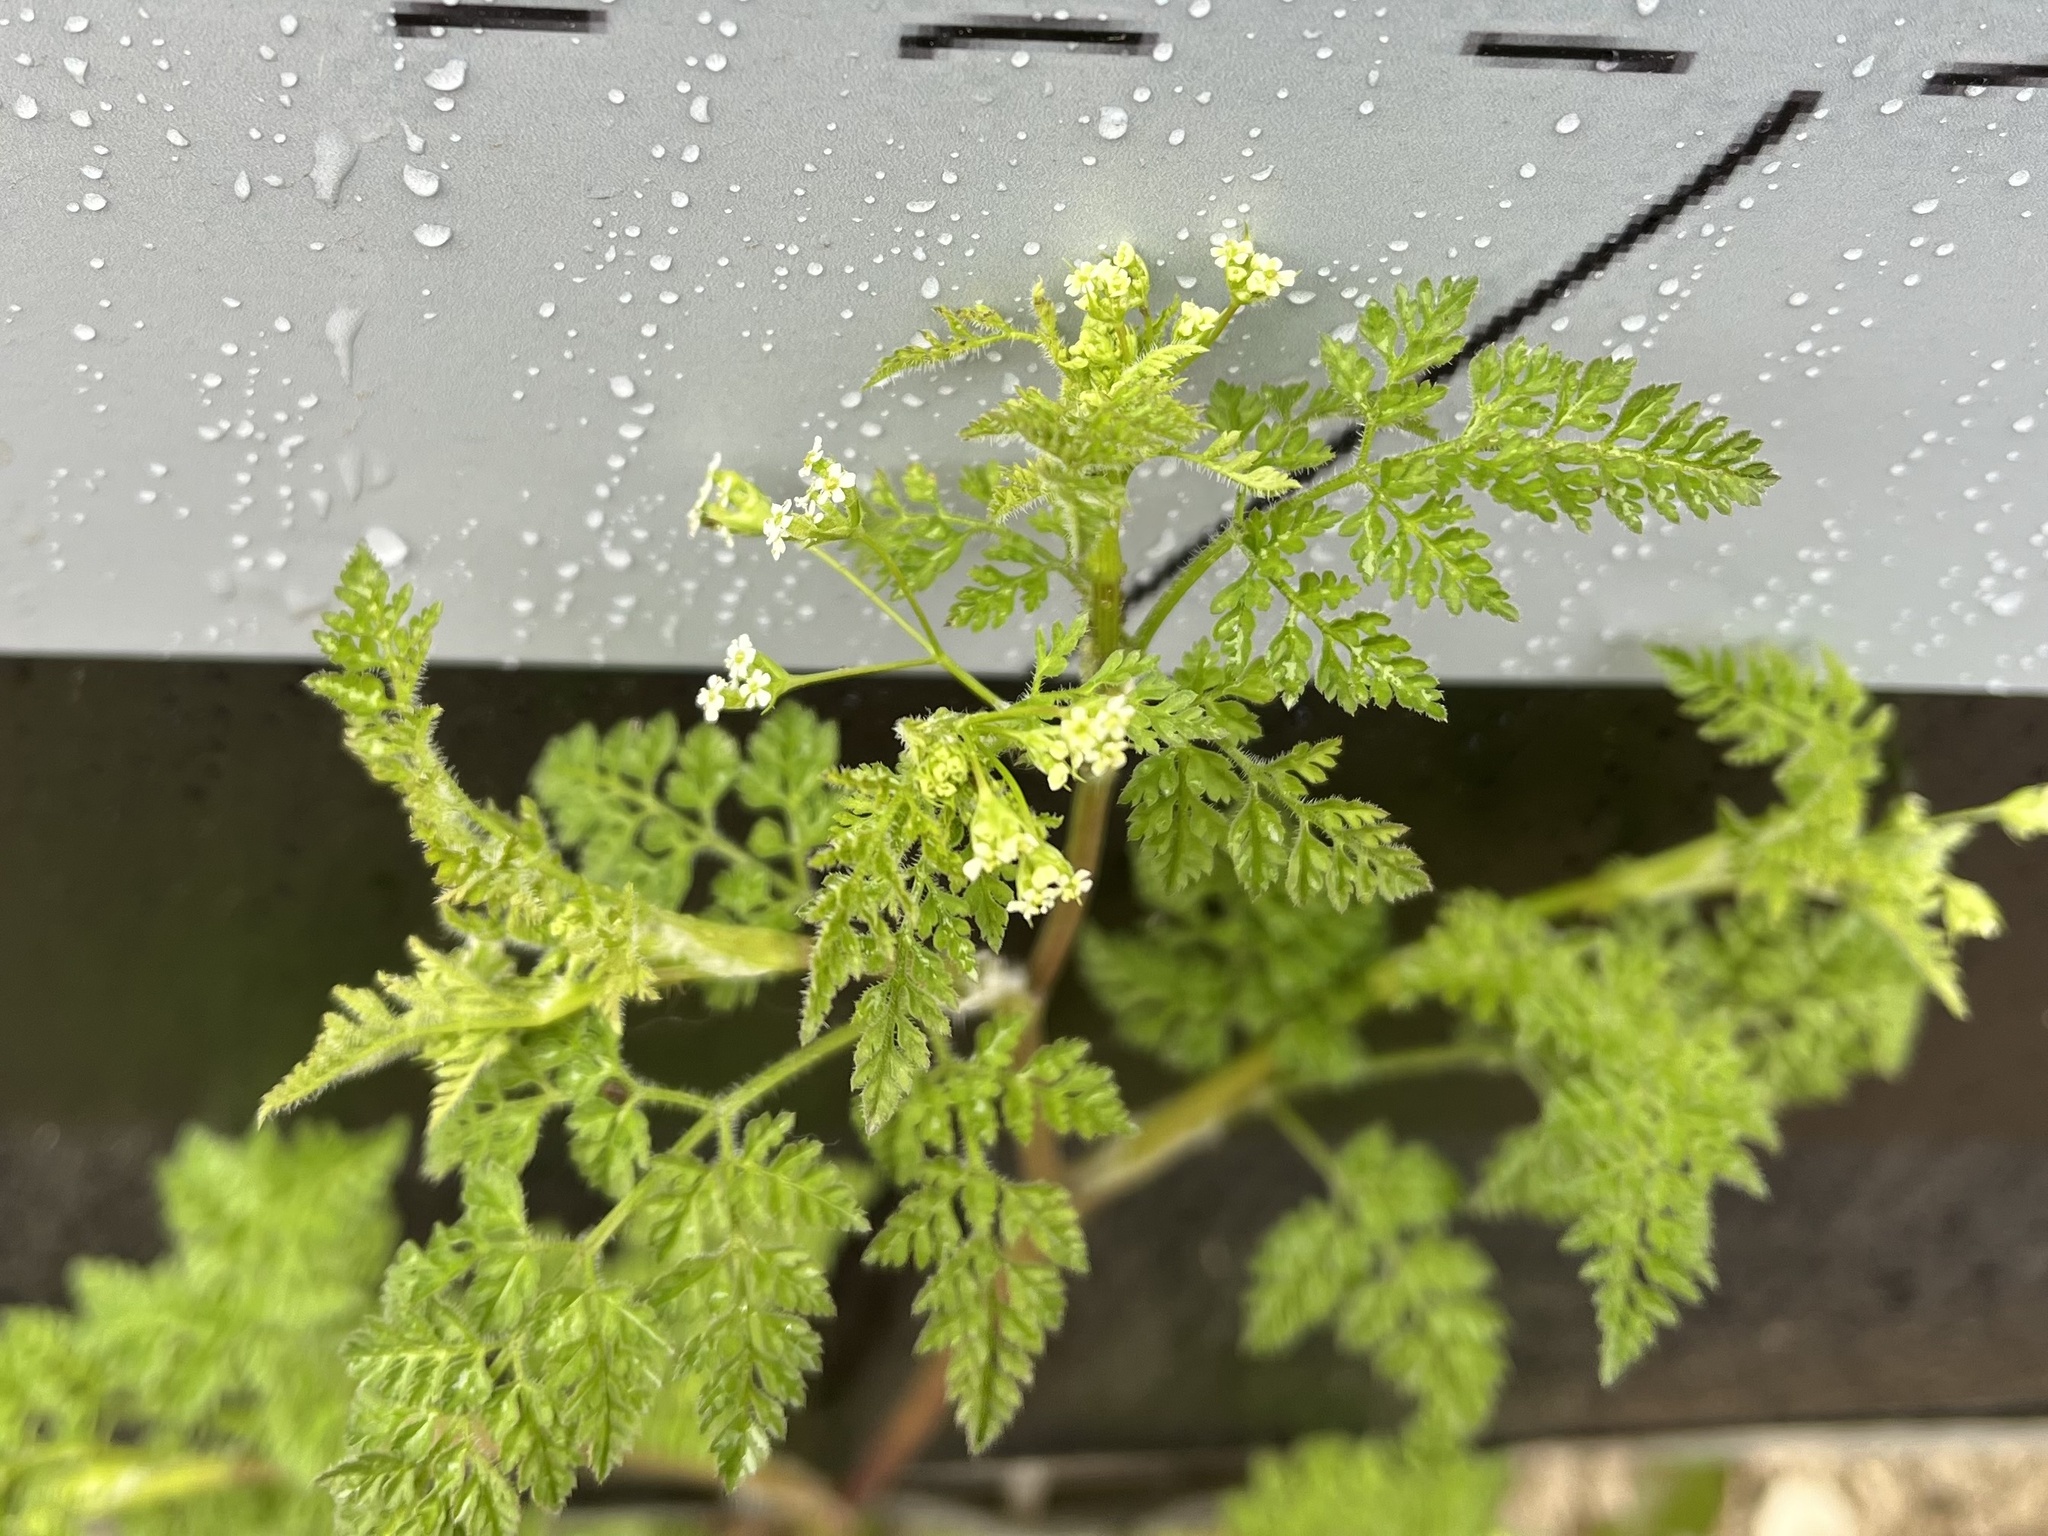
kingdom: Plantae
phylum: Tracheophyta
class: Magnoliopsida
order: Apiales
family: Apiaceae
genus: Anthriscus
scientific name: Anthriscus caucalis
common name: Bur chervil
